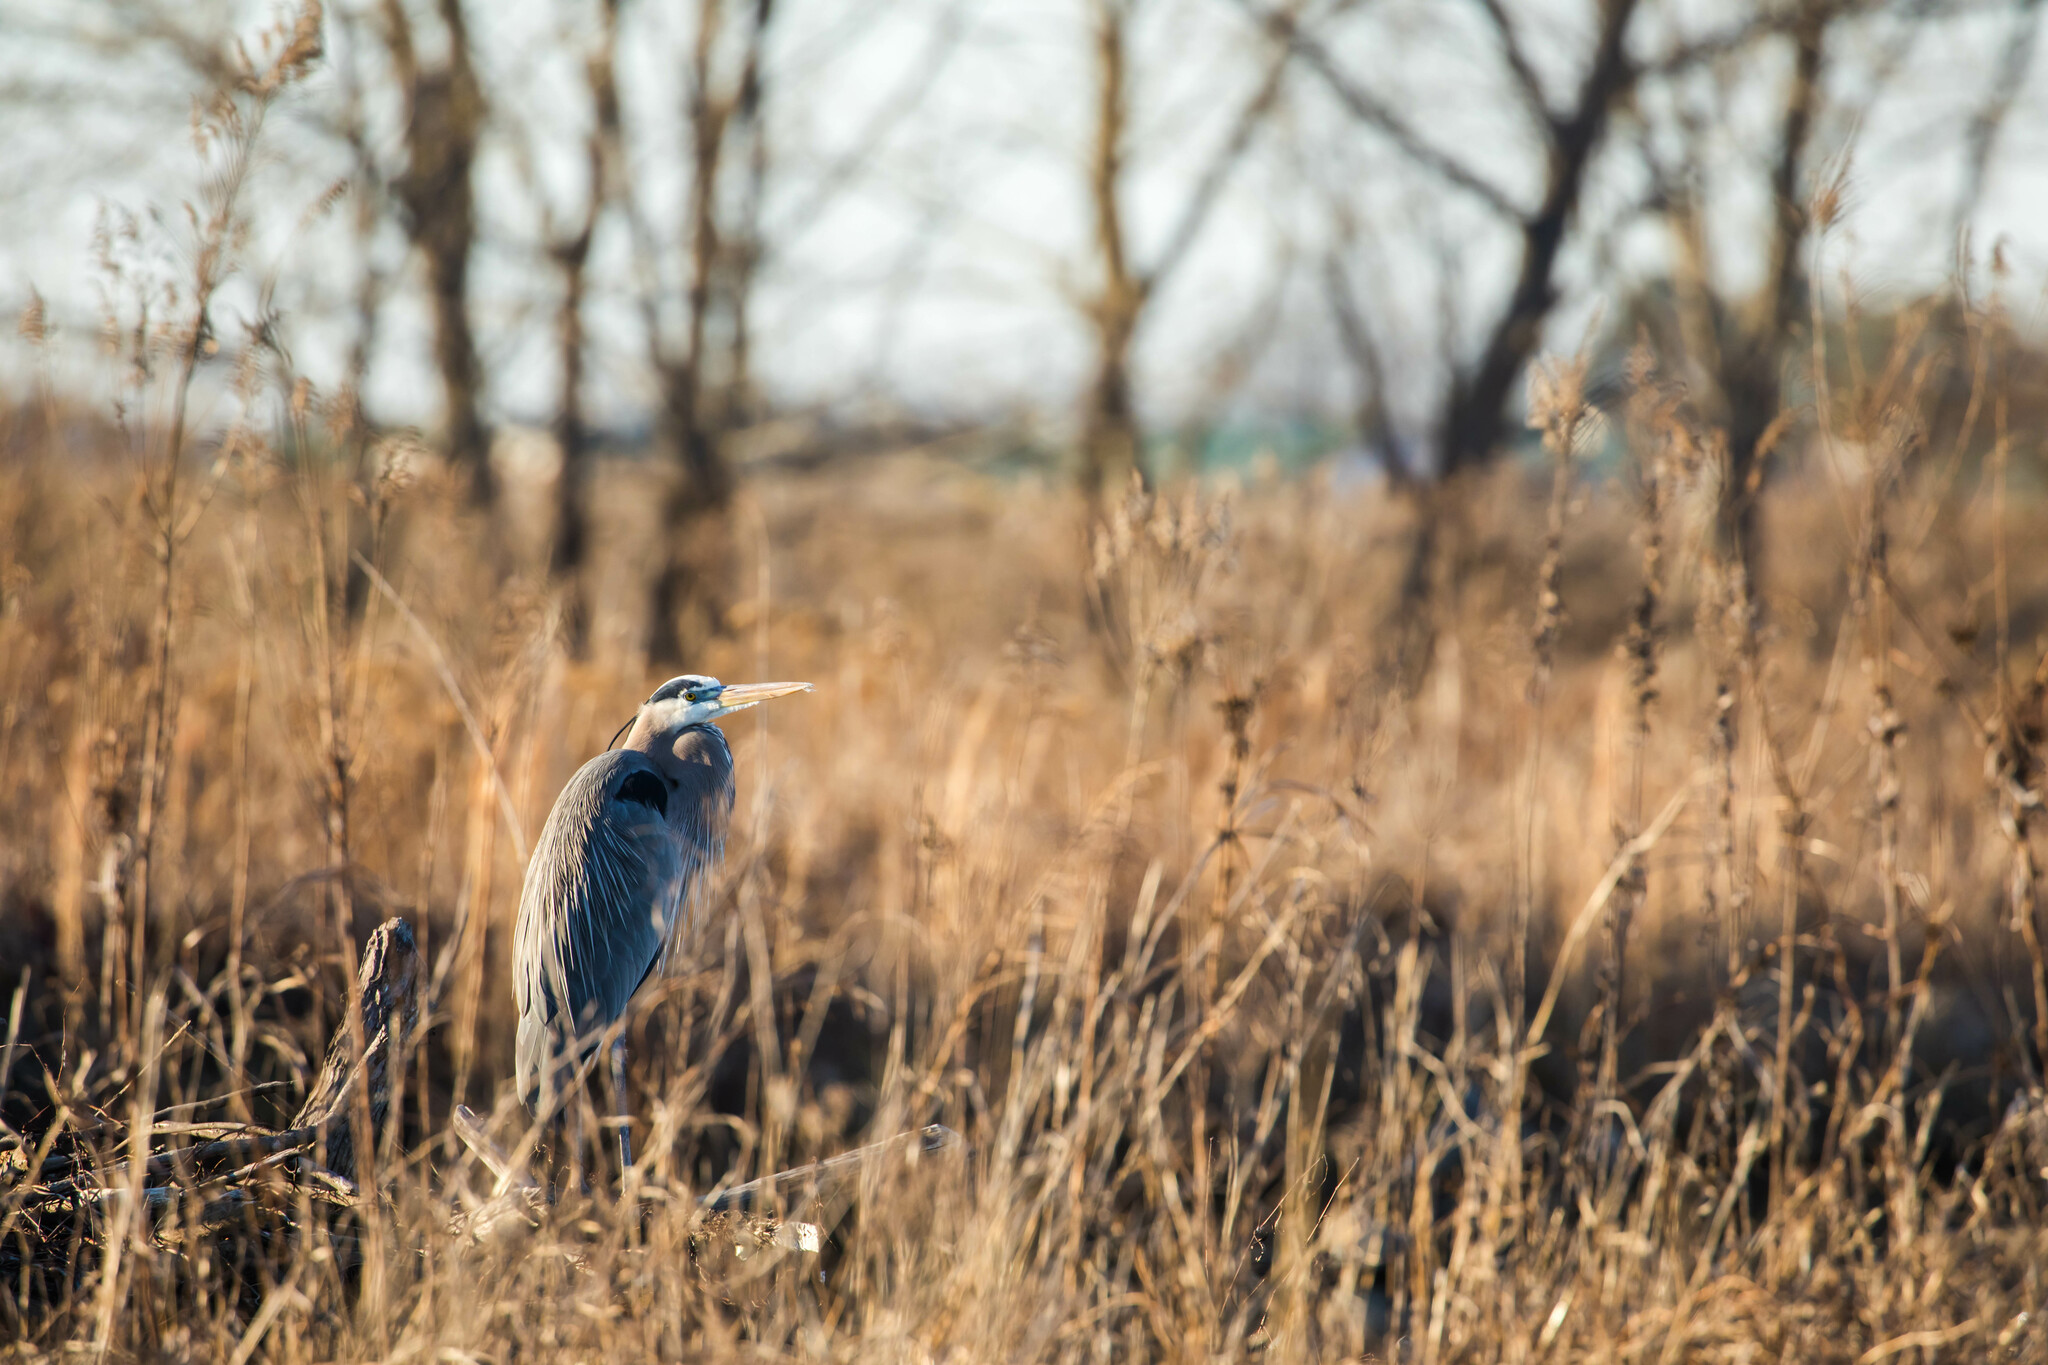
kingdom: Animalia
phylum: Chordata
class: Aves
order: Pelecaniformes
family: Ardeidae
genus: Ardea
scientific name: Ardea herodias
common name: Great blue heron
